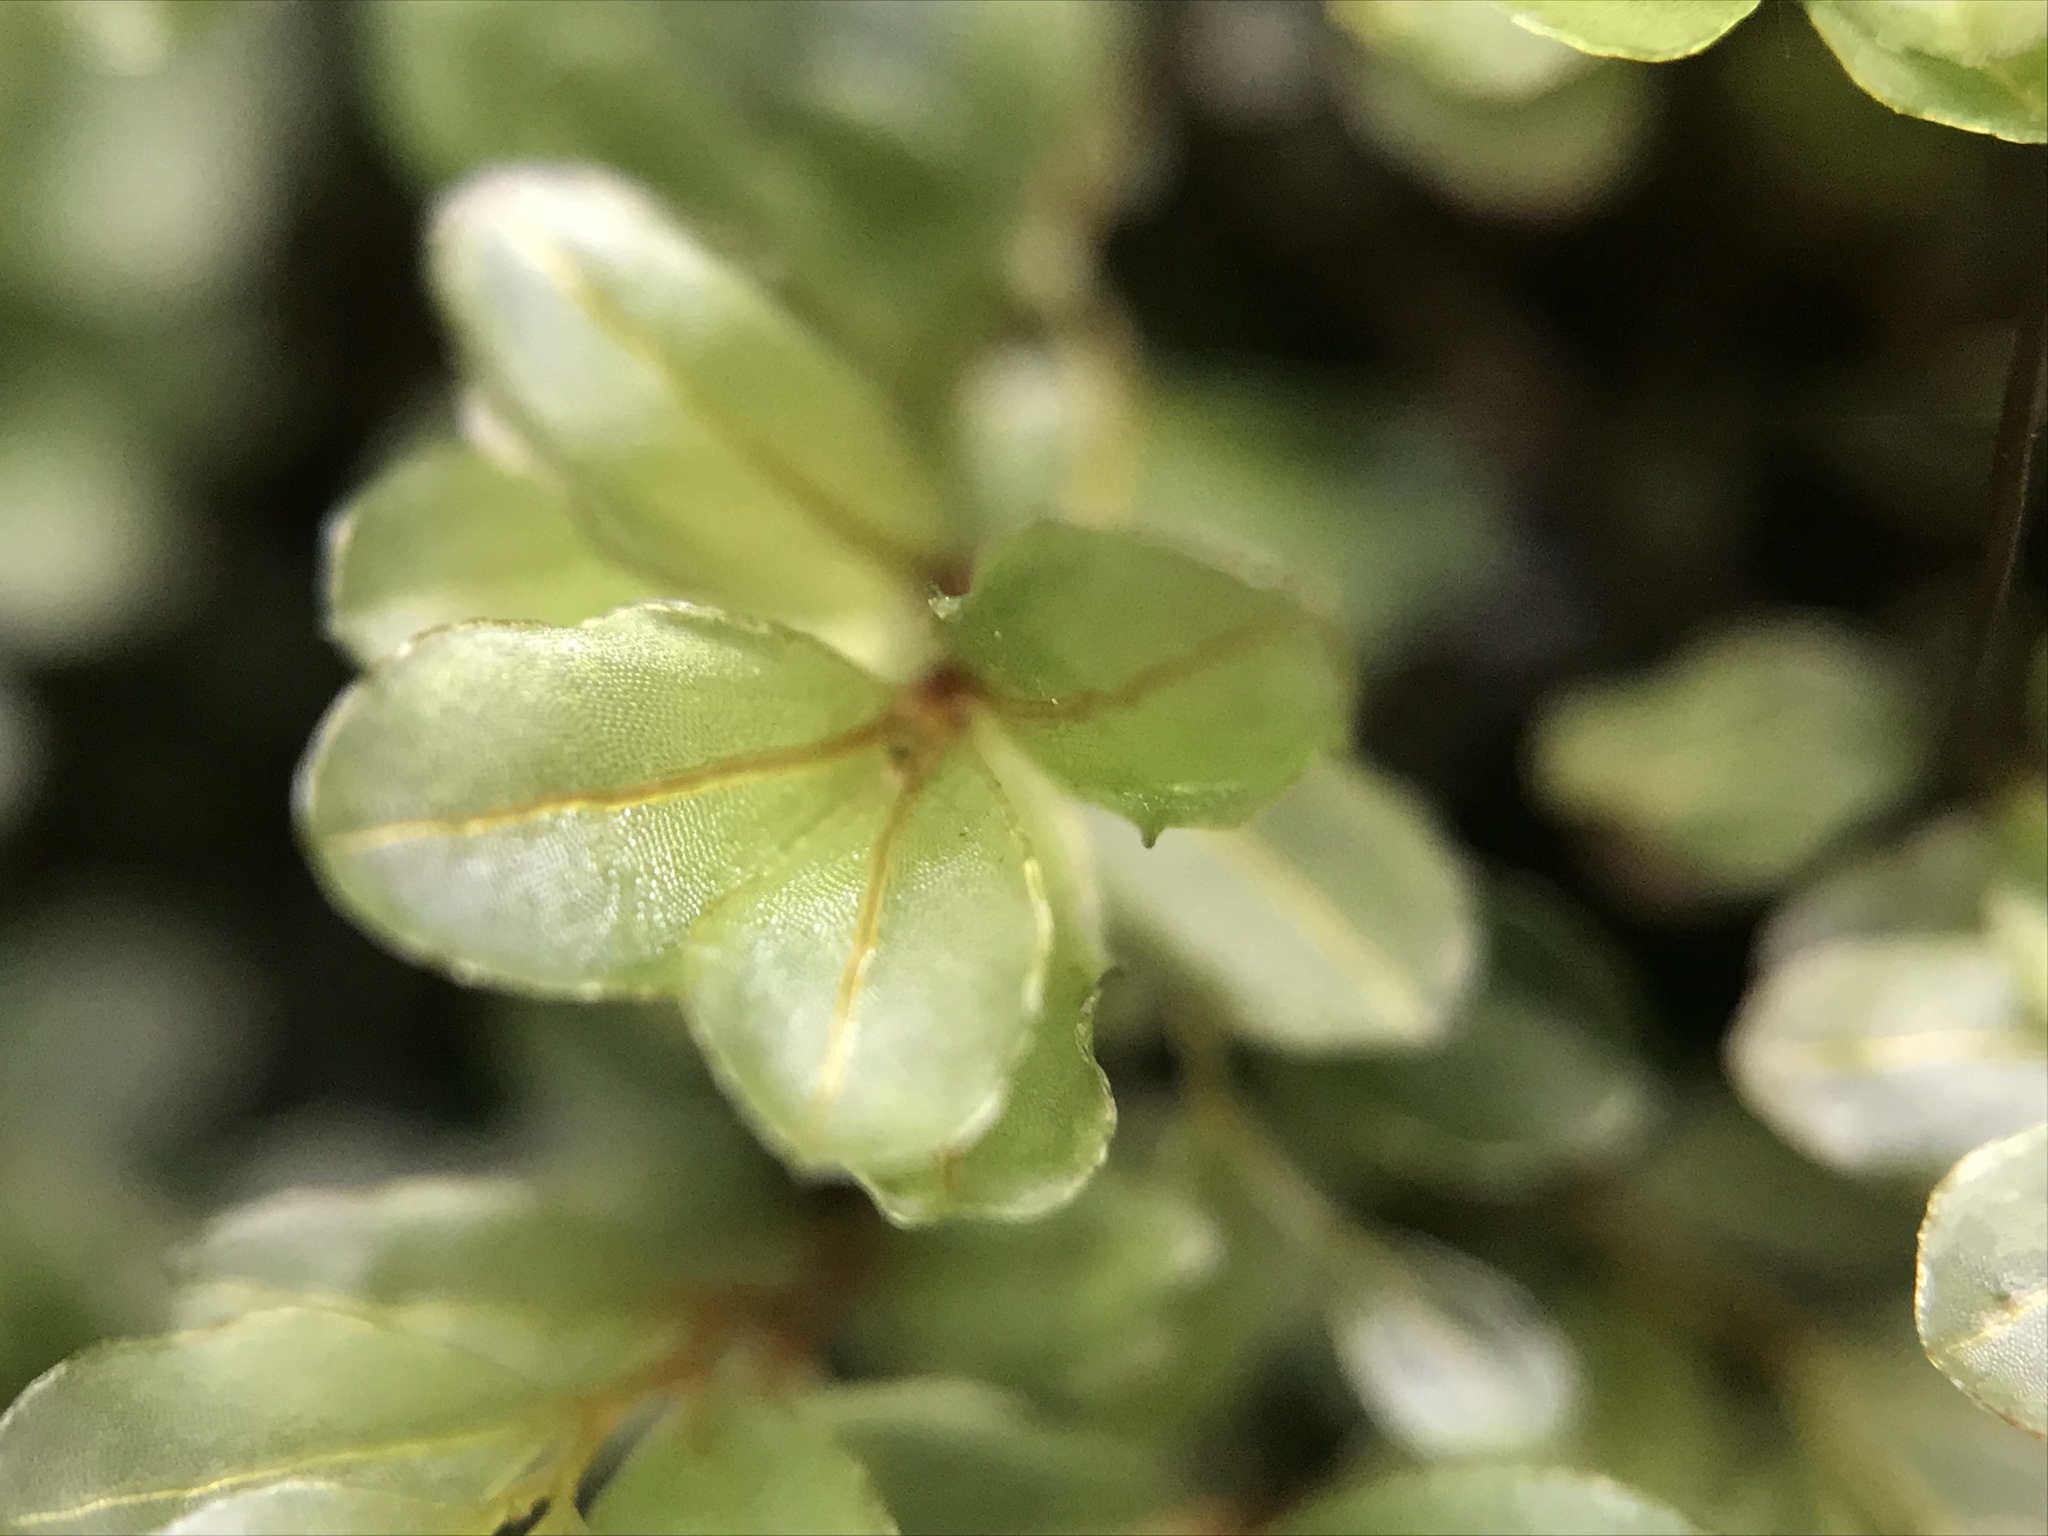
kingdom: Plantae
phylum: Bryophyta
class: Bryopsida
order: Bryales
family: Mniaceae
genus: Plagiomnium
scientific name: Plagiomnium ellipticum
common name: Marsh leafy moss
